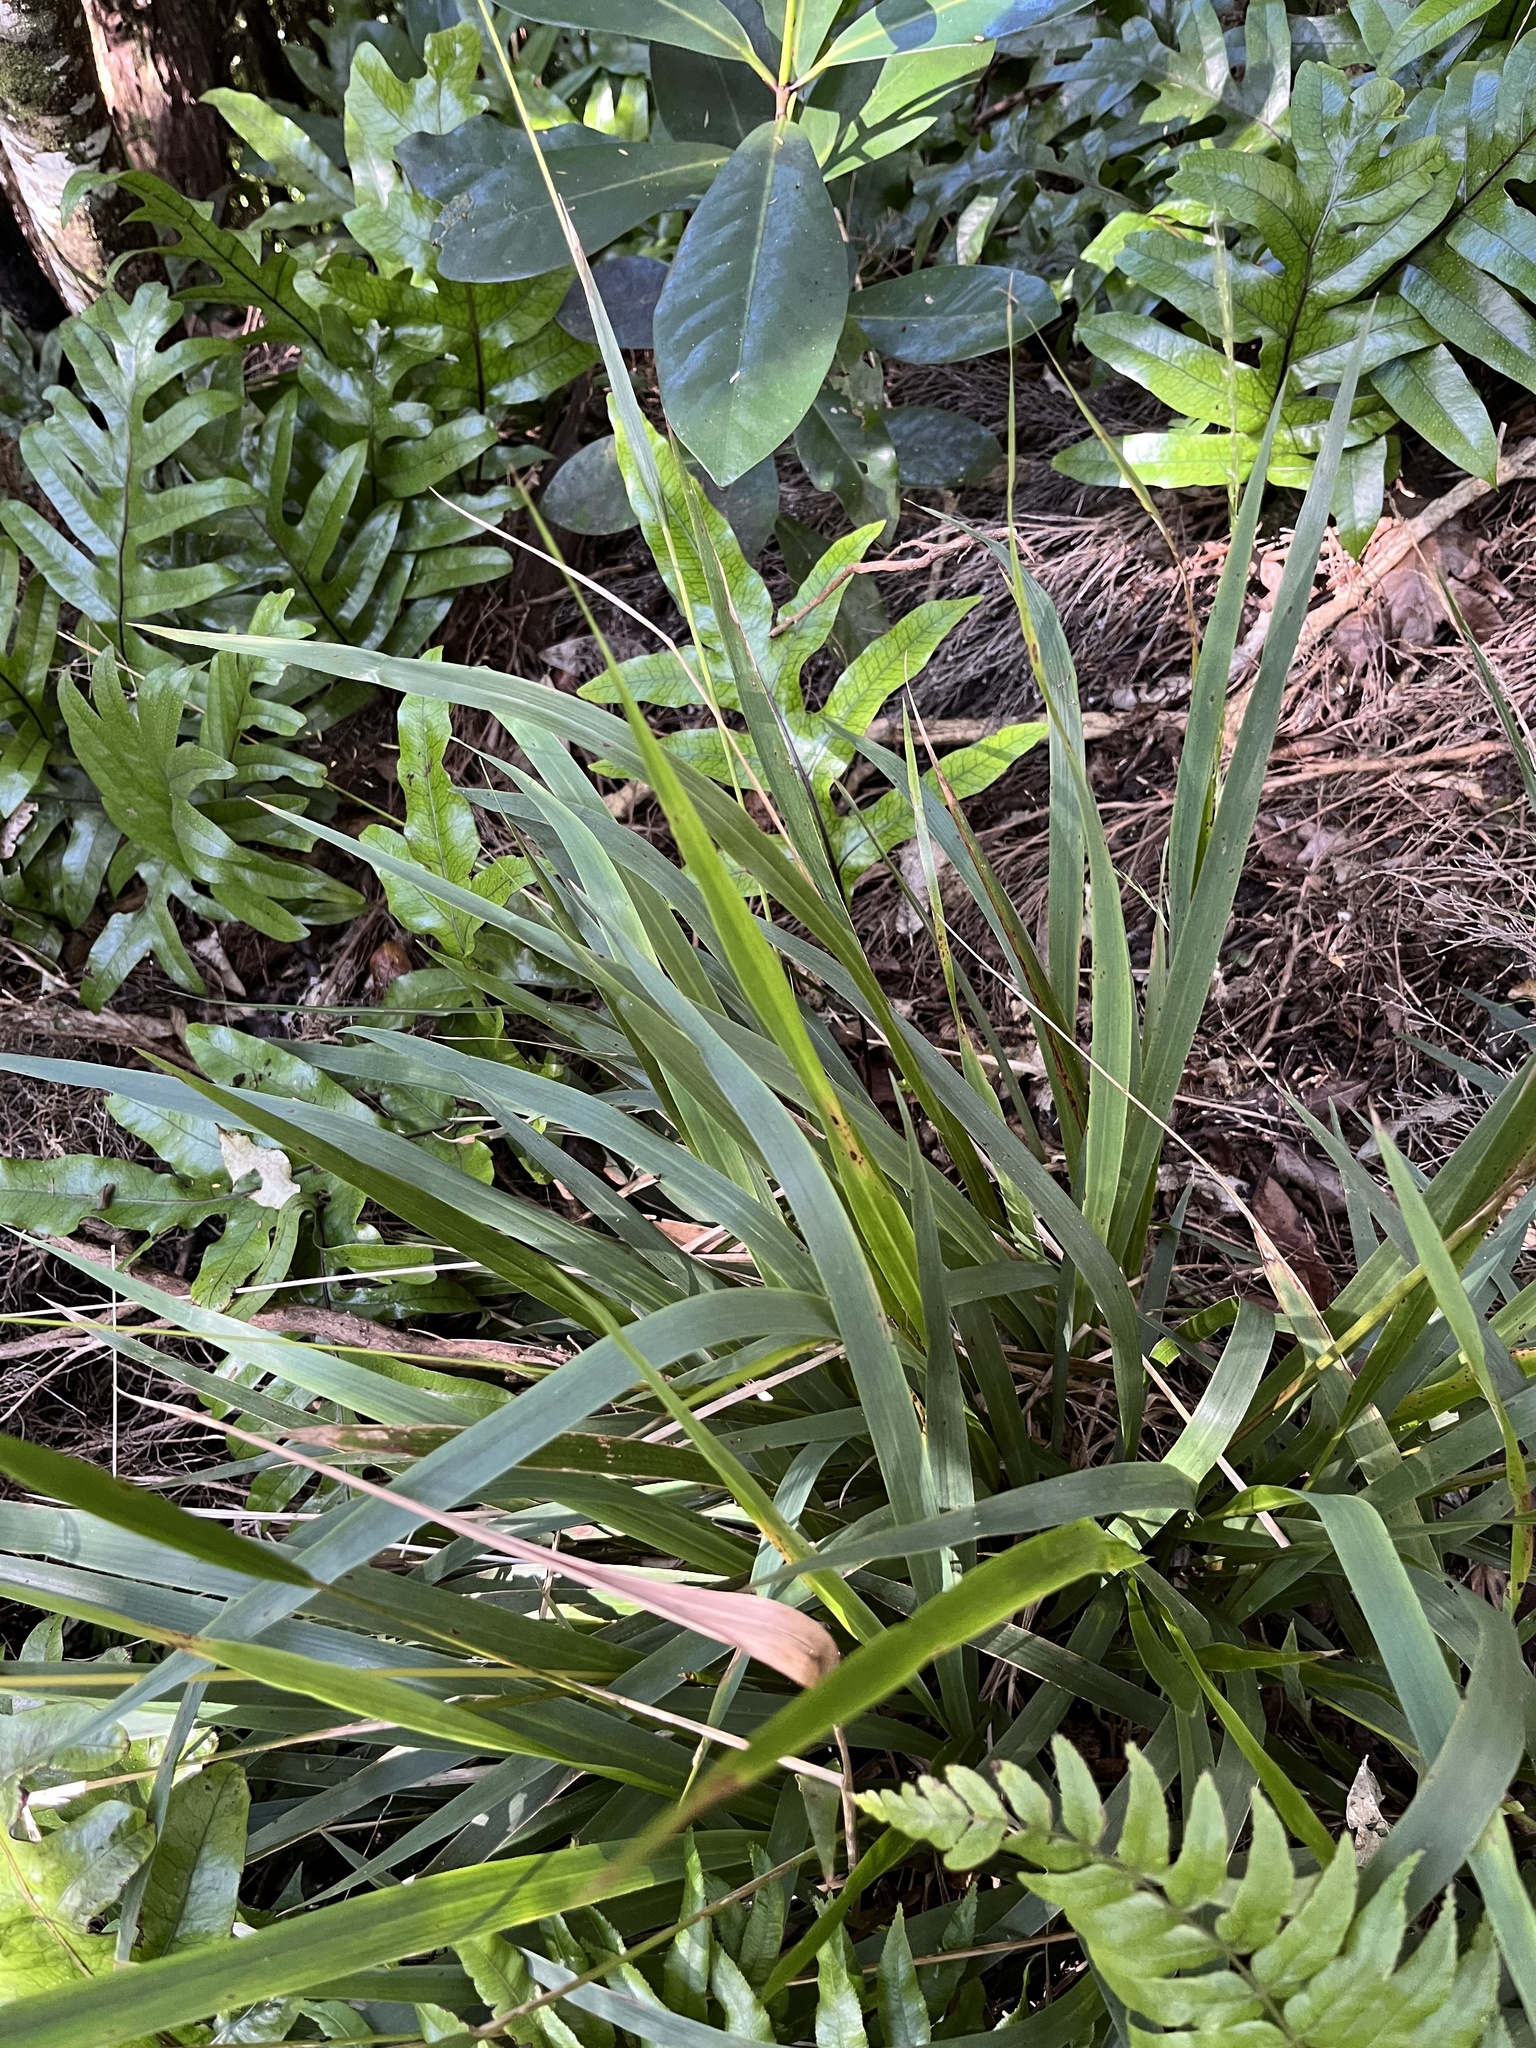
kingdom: Plantae
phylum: Tracheophyta
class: Liliopsida
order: Poales
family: Poaceae
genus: Ehrharta
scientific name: Ehrharta diplax
